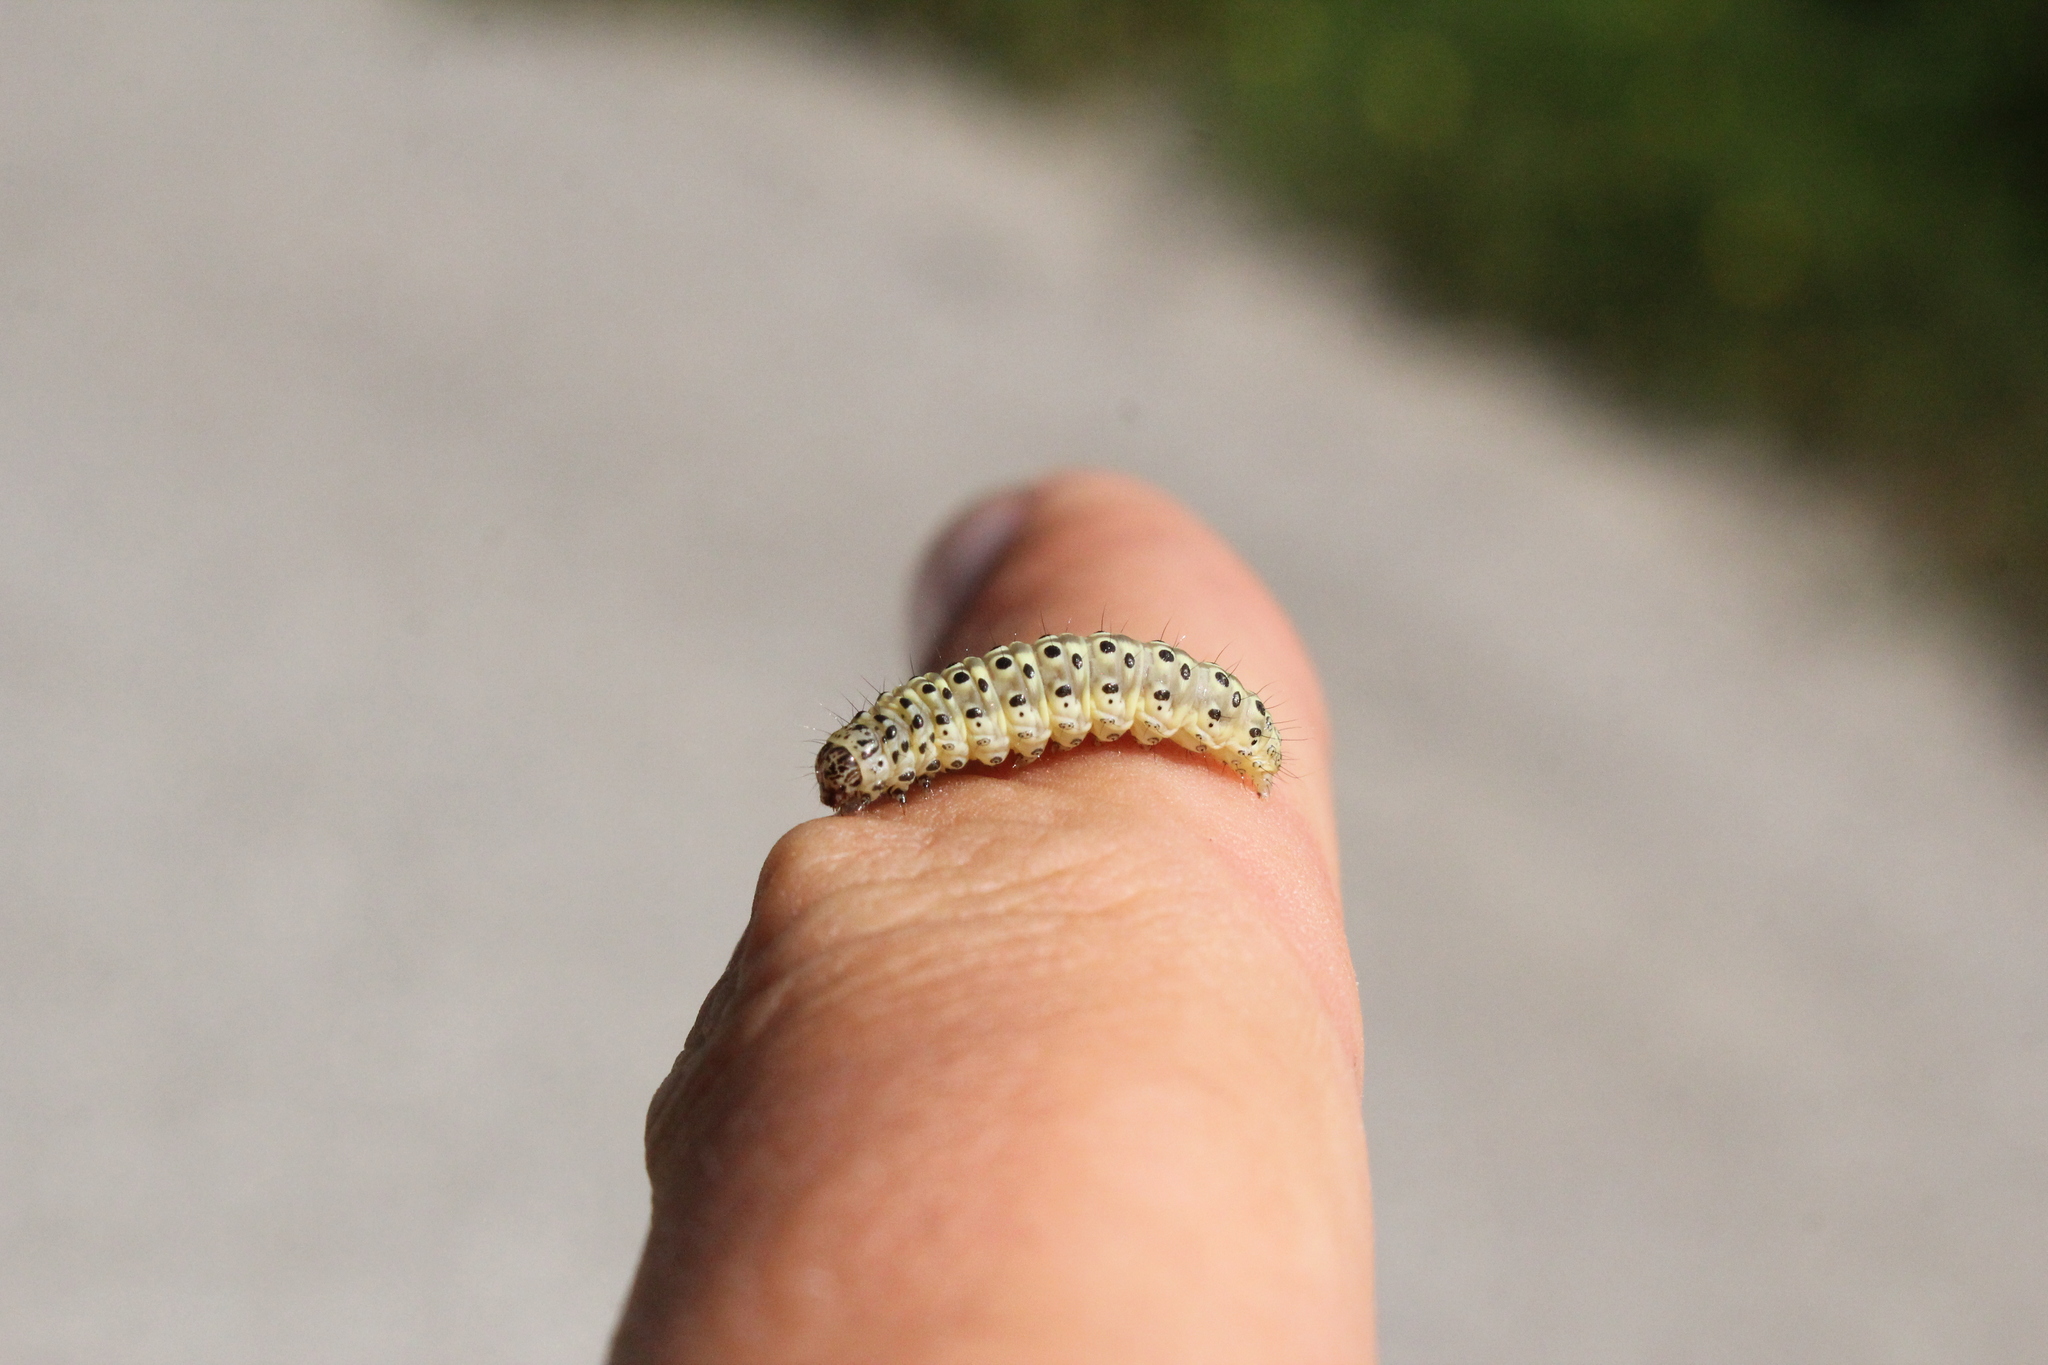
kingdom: Animalia
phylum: Arthropoda
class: Insecta
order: Lepidoptera
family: Crambidae
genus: Sitochroa
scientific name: Sitochroa palealis
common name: Greenish-yellow sitochroa moth
